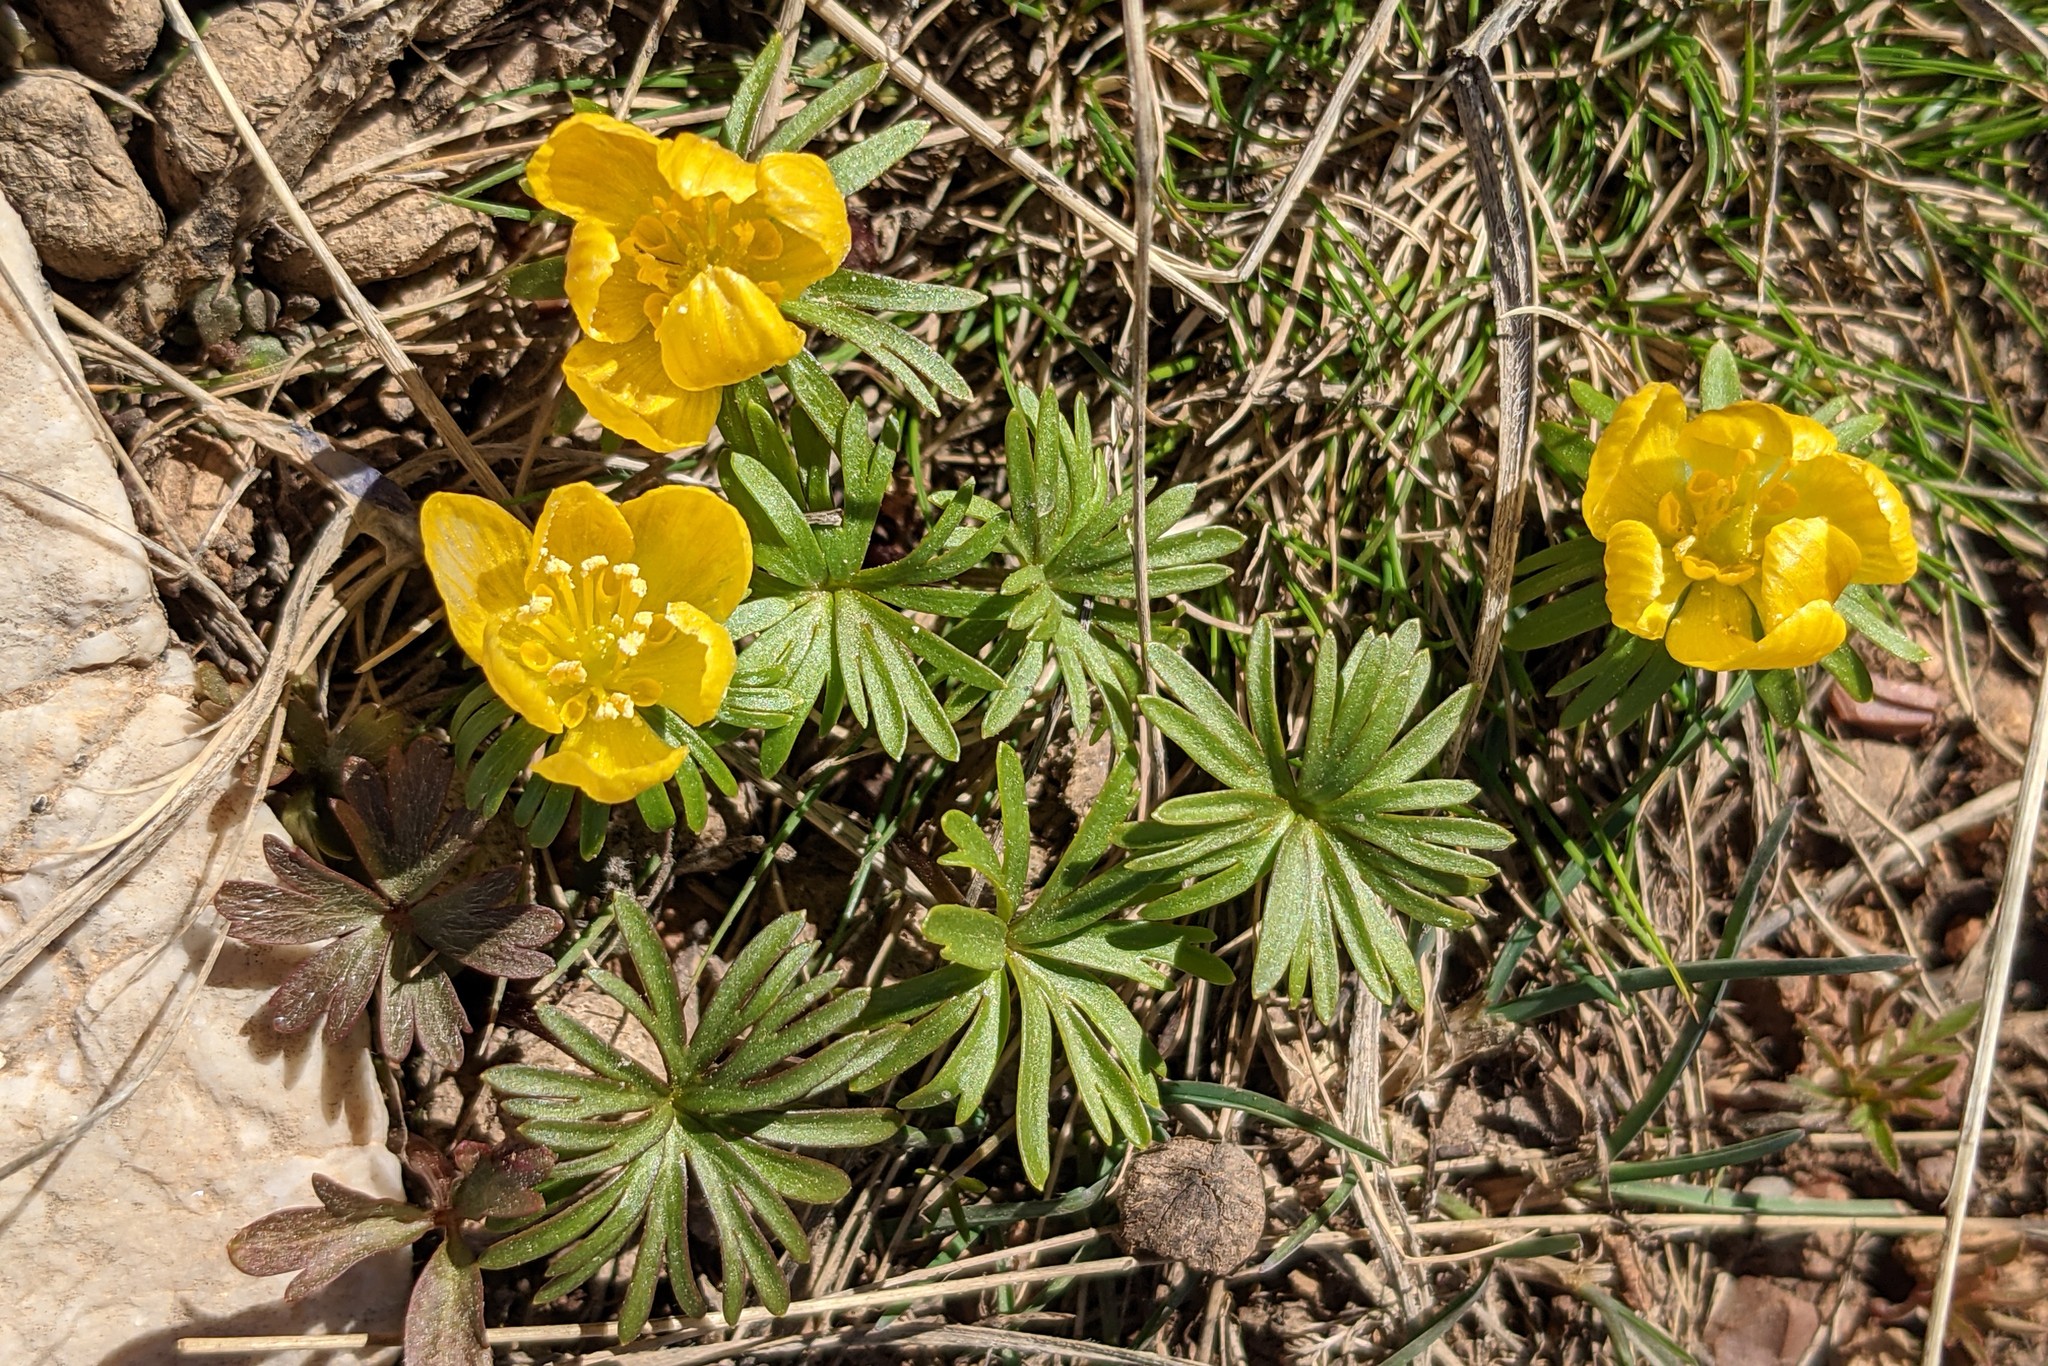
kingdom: Plantae
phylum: Tracheophyta
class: Magnoliopsida
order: Ranunculales
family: Ranunculaceae
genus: Eranthis
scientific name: Eranthis cilicica
